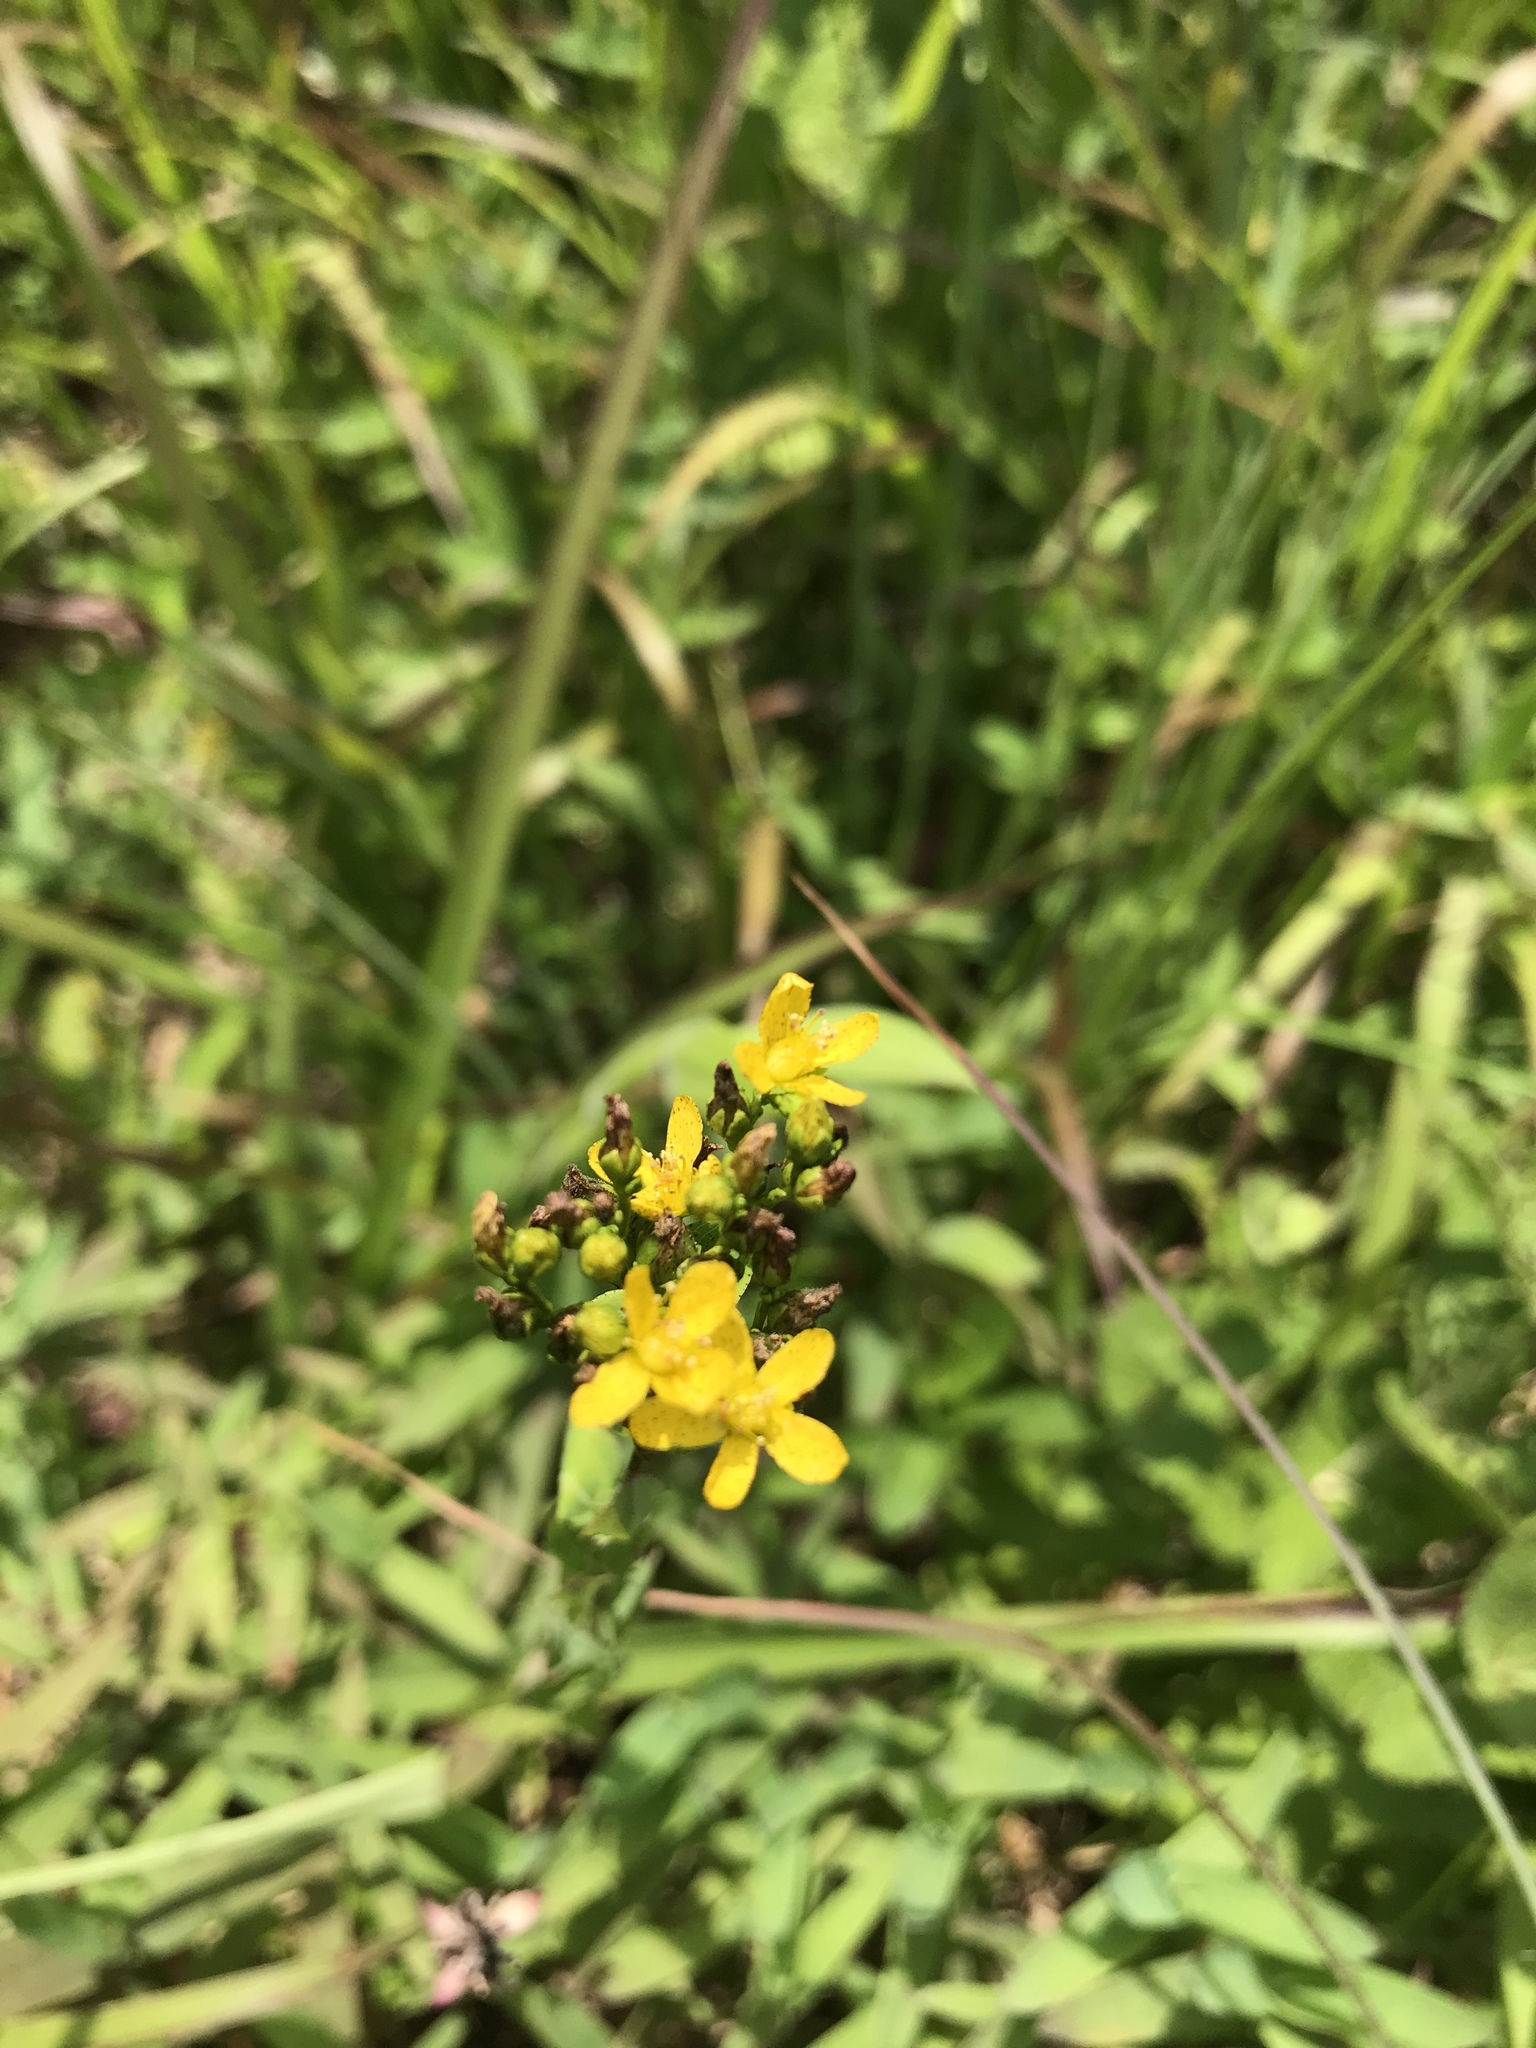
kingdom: Plantae
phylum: Tracheophyta
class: Magnoliopsida
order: Malpighiales
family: Hypericaceae
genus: Hypericum
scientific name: Hypericum punctatum
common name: Spotted st. john's-wort
